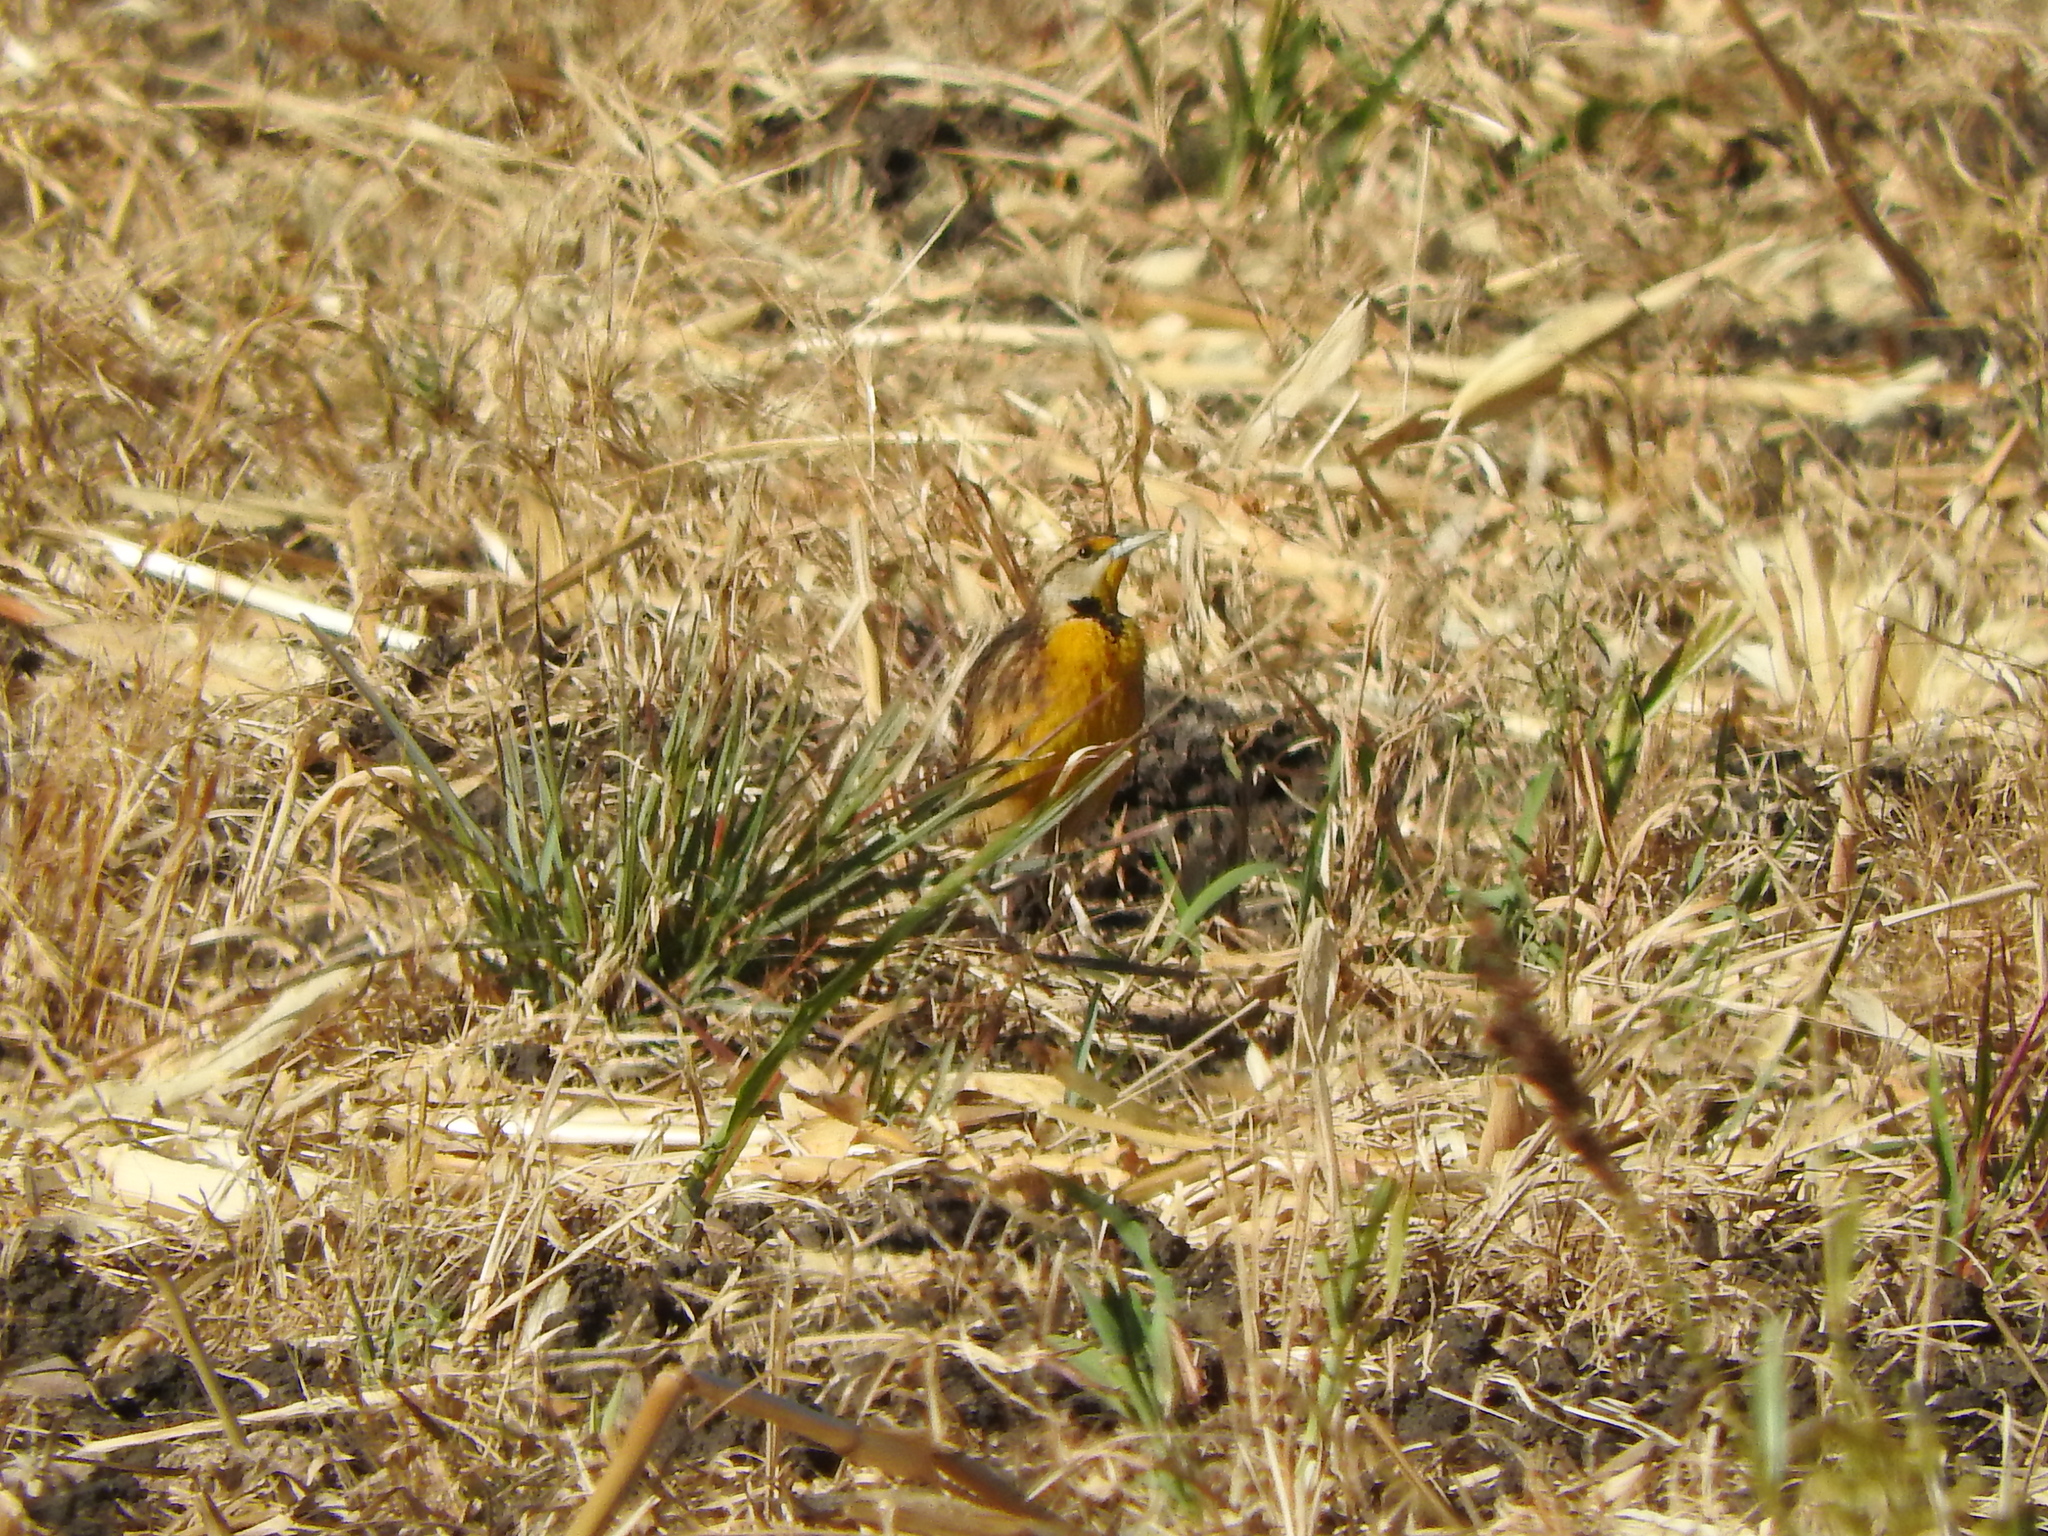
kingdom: Animalia
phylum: Chordata
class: Aves
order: Passeriformes
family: Icteridae
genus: Sturnella
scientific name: Sturnella lilianae
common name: Lilian's meadowlark
